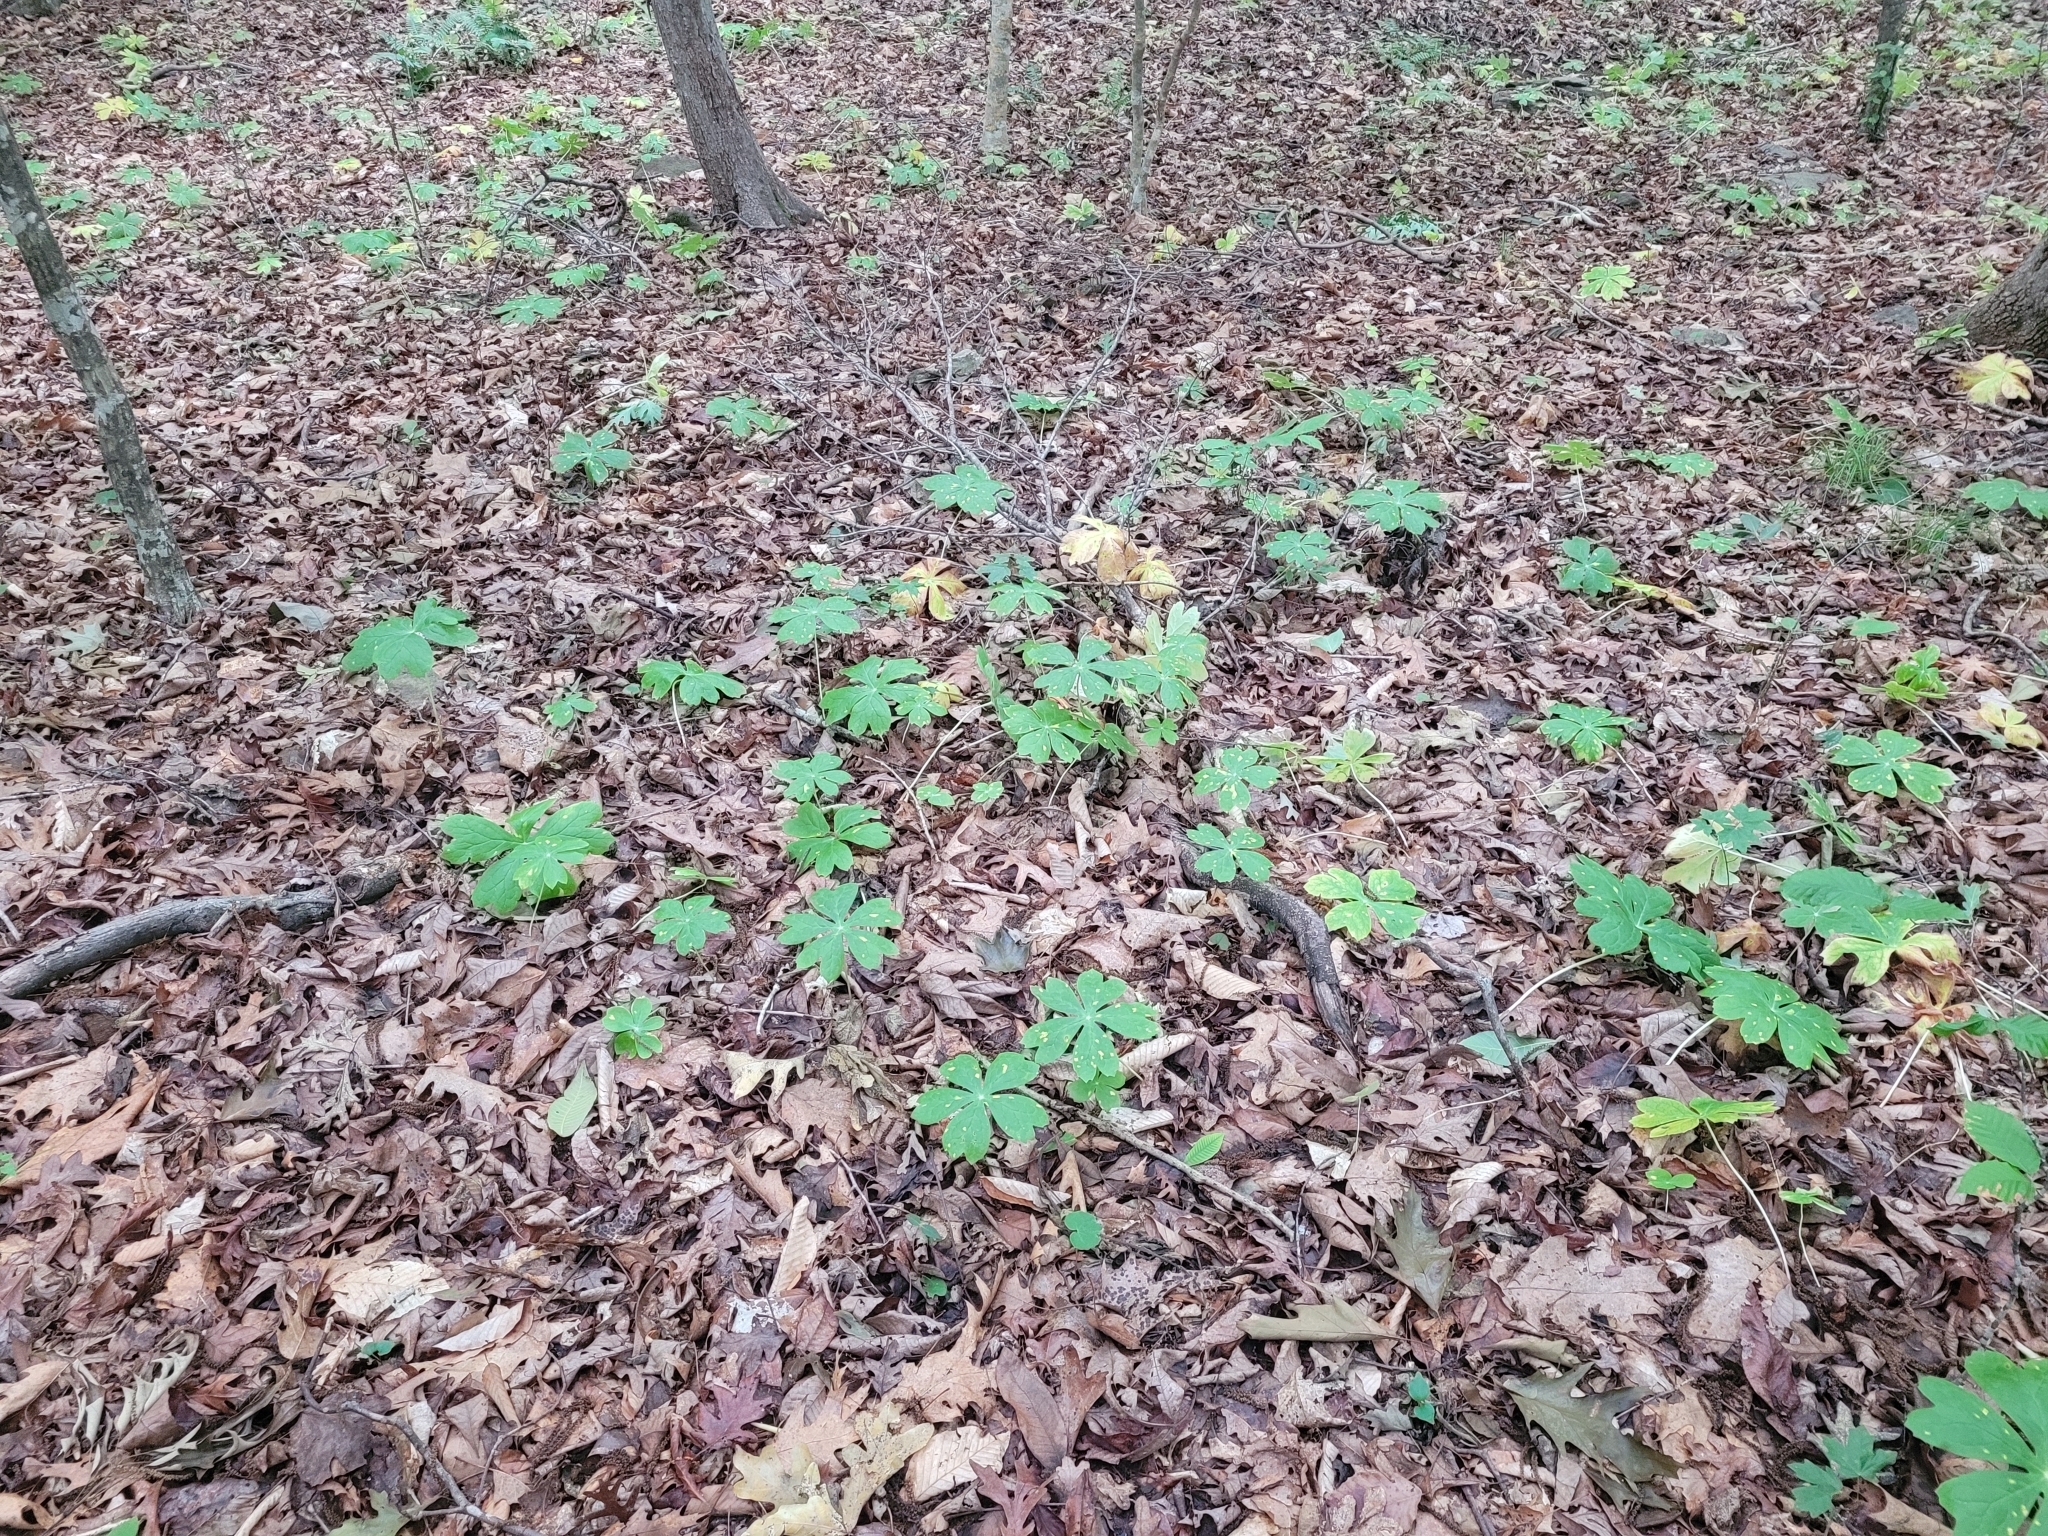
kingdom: Plantae
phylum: Tracheophyta
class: Magnoliopsida
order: Ranunculales
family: Berberidaceae
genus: Podophyllum
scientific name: Podophyllum peltatum
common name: Wild mandrake
